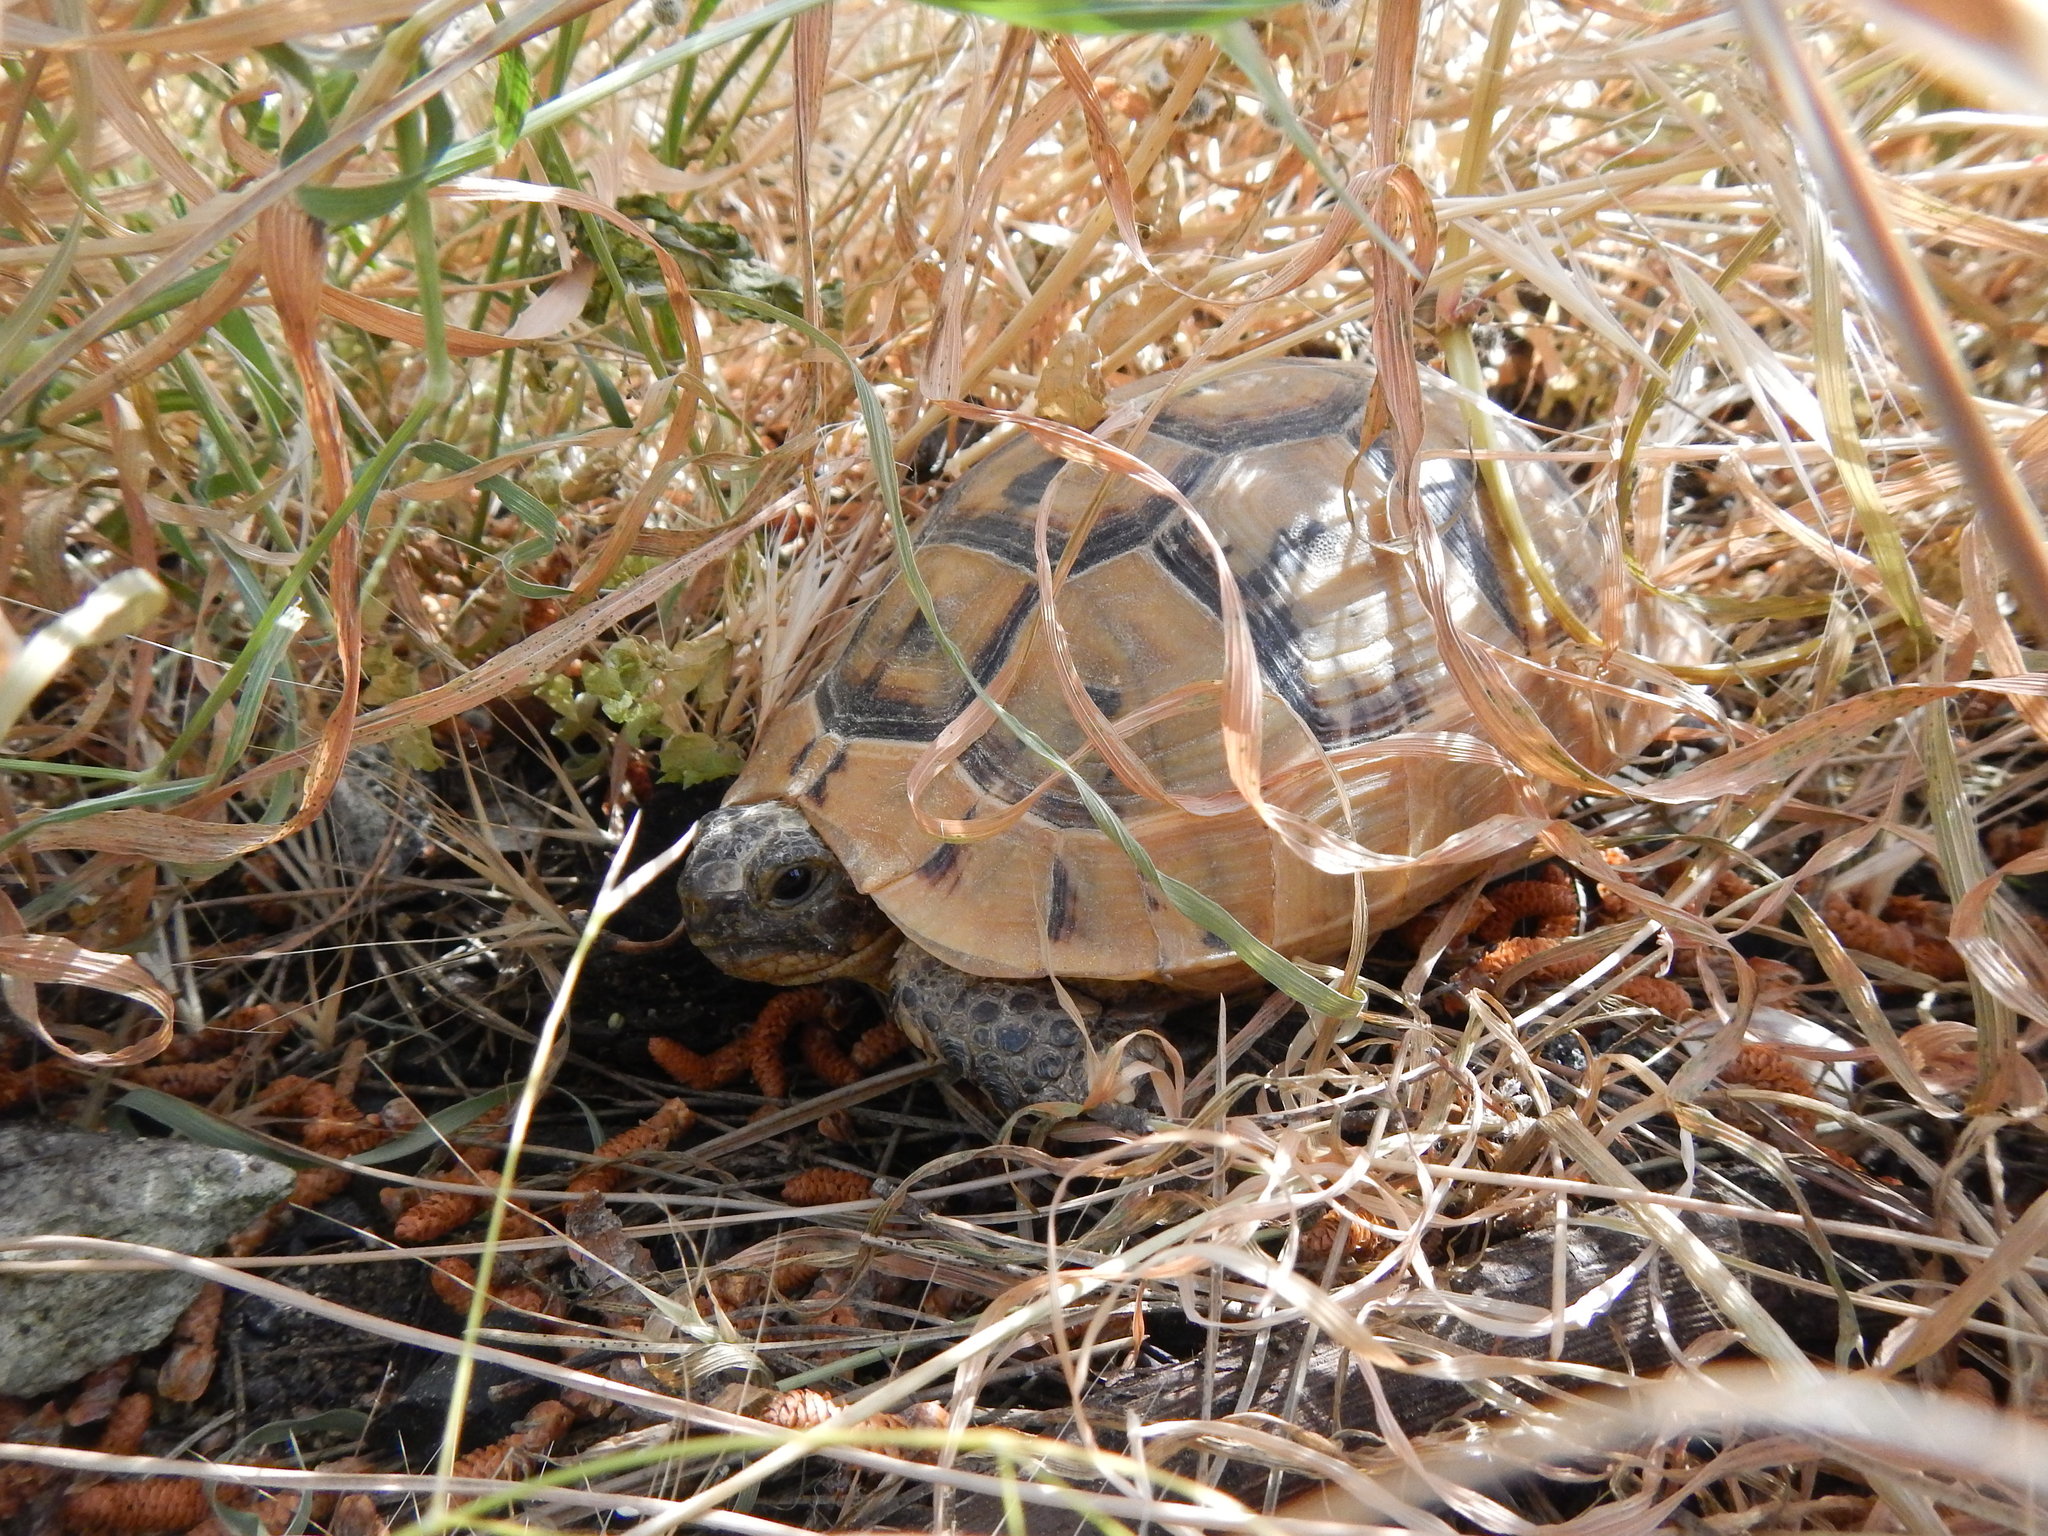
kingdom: Animalia
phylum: Chordata
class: Testudines
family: Testudinidae
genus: Testudo
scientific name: Testudo graeca
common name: Common tortoise
